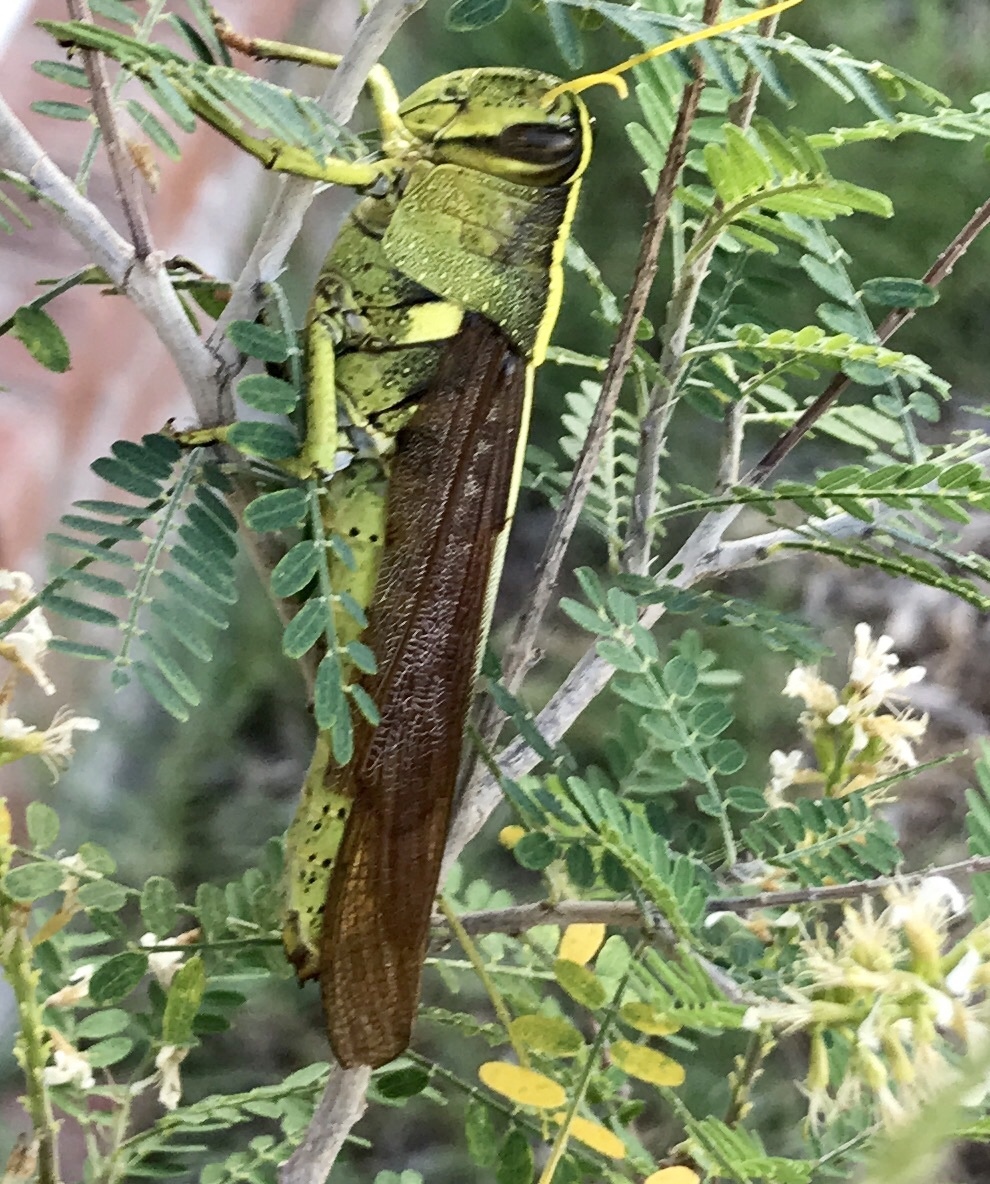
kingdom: Animalia
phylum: Arthropoda
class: Insecta
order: Orthoptera
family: Acrididae
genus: Schistocerca
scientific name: Schistocerca obscura
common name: Obscure bird grasshopper
